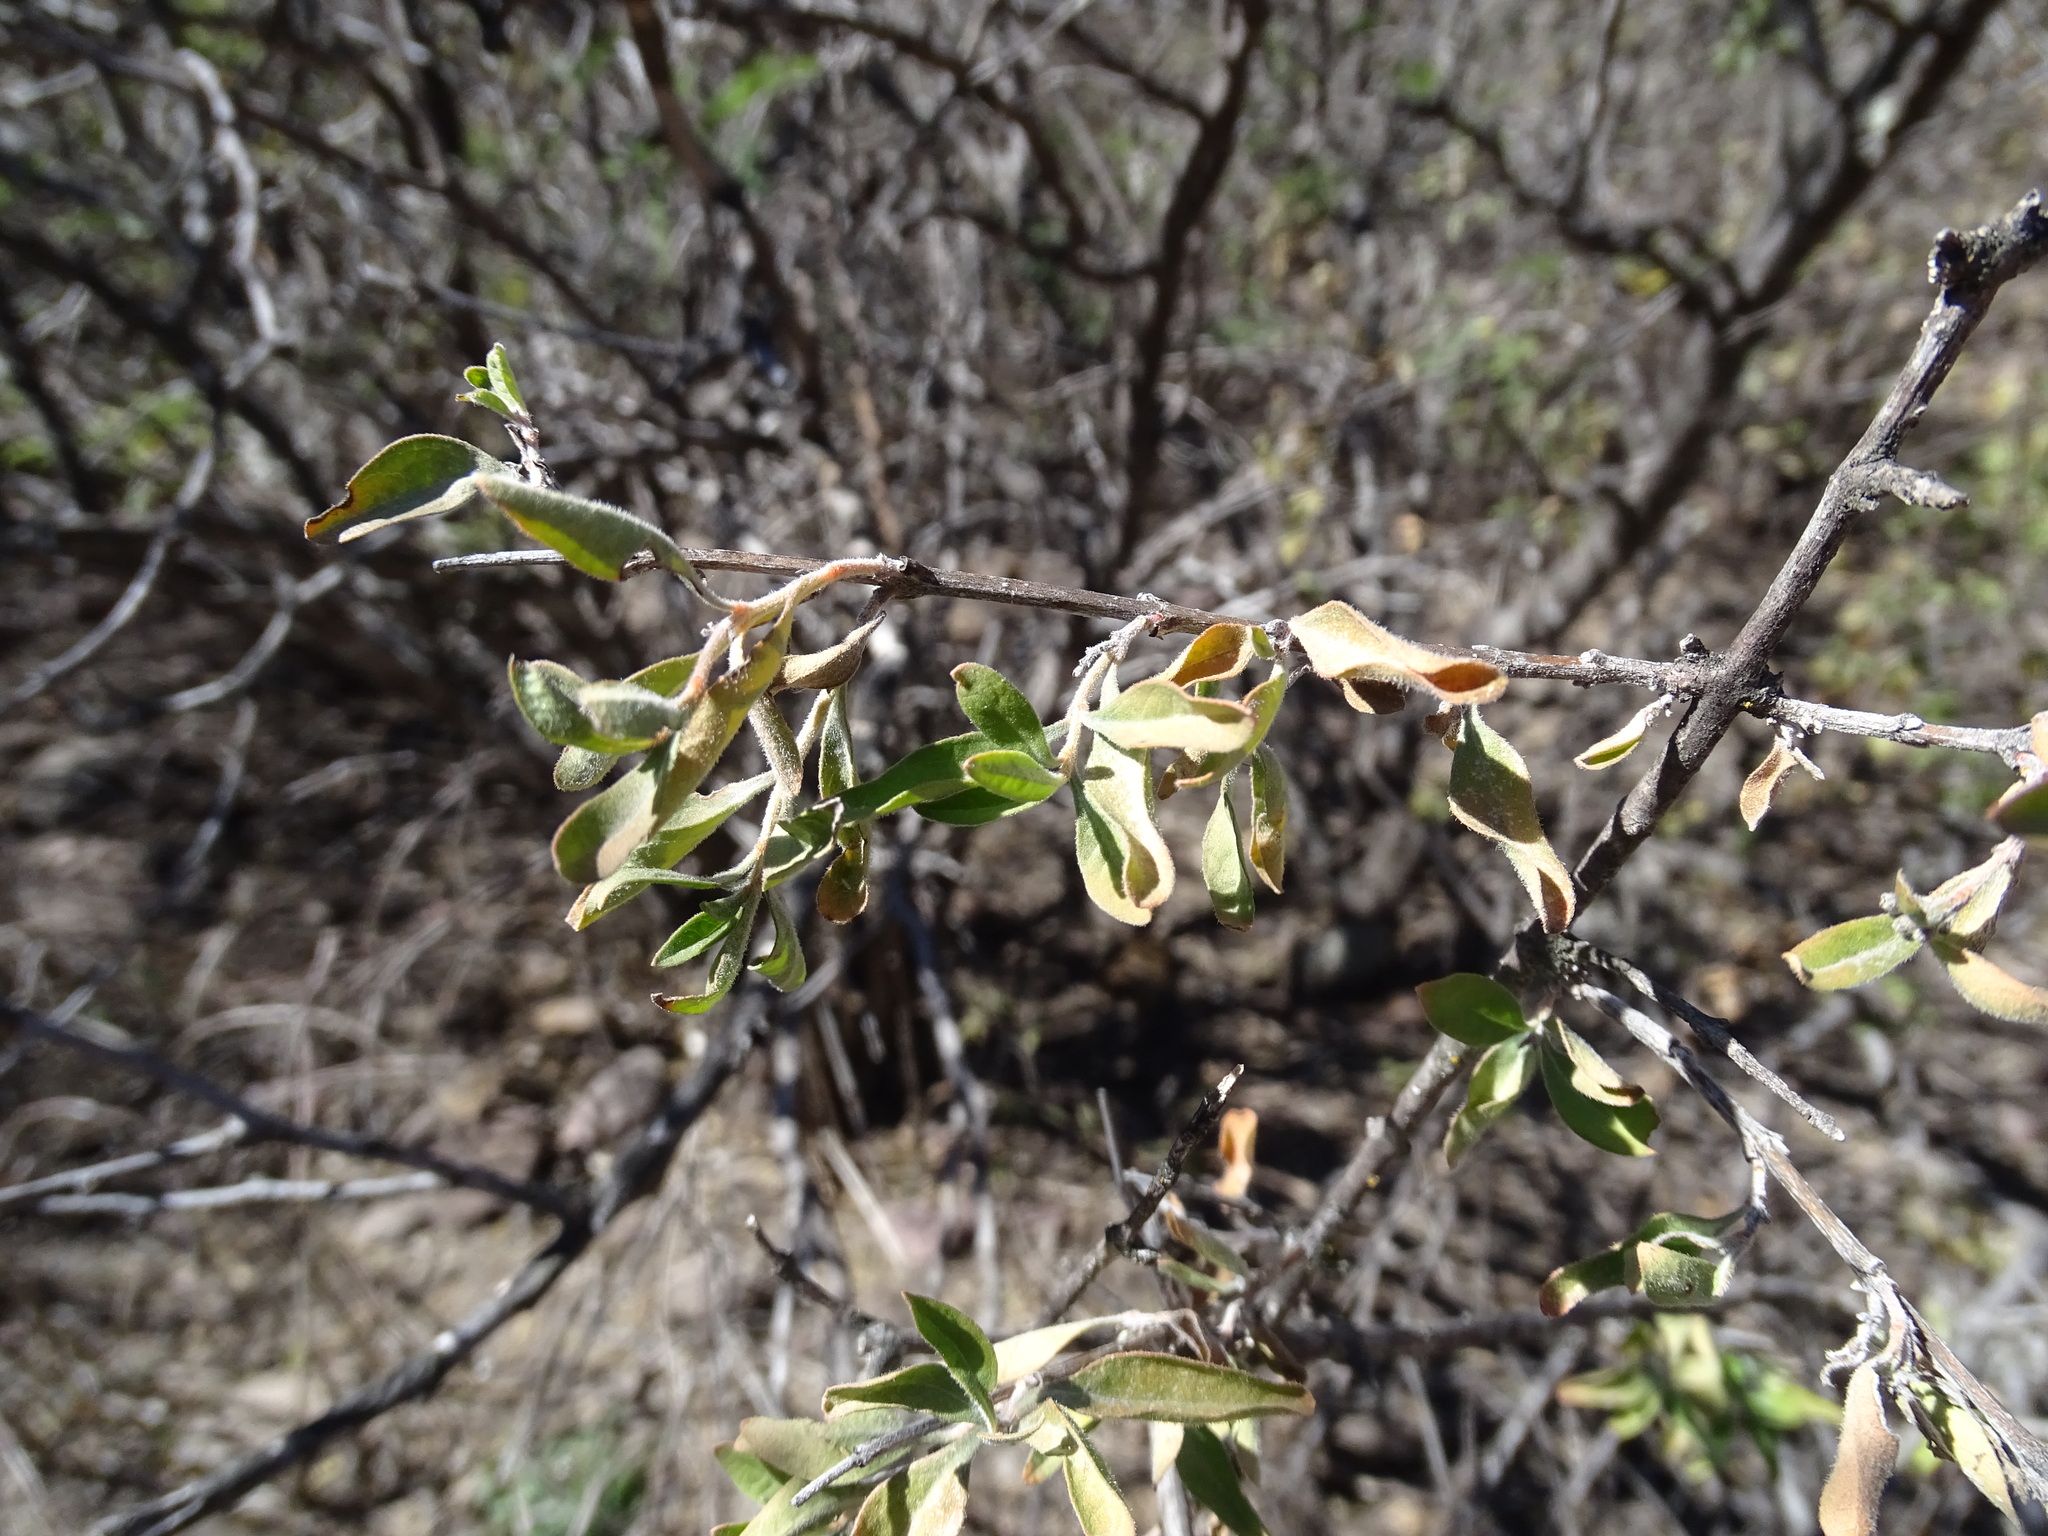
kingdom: Plantae
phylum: Tracheophyta
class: Magnoliopsida
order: Lamiales
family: Verbenaceae
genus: Citharexylum
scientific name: Citharexylum racemosum
